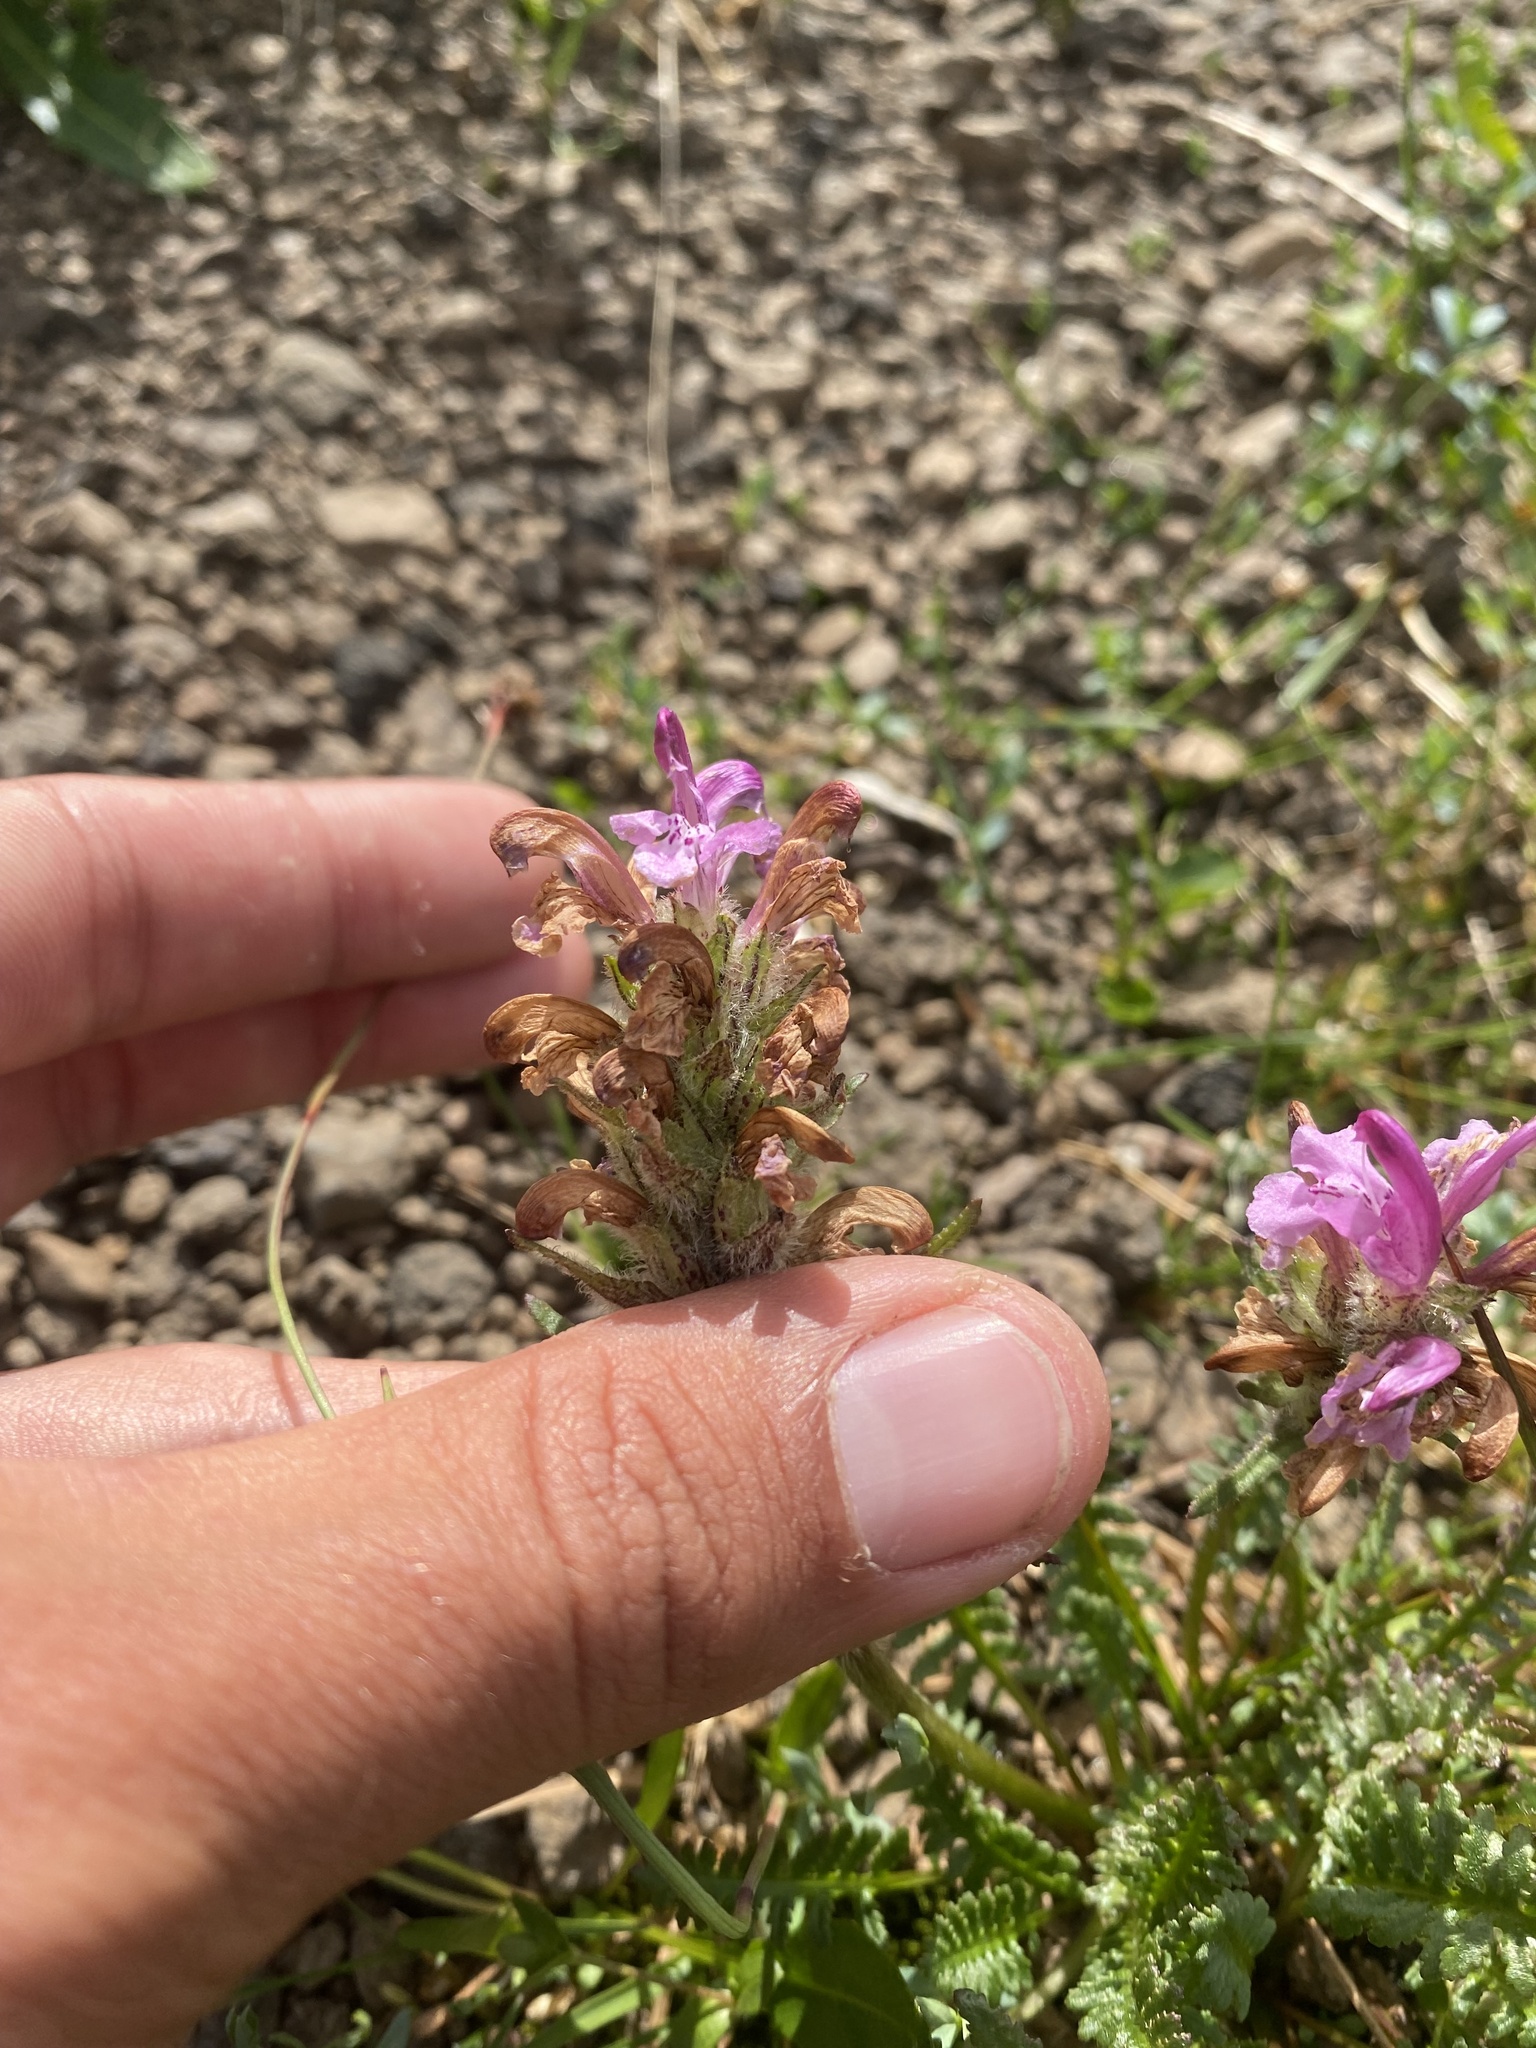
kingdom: Plantae
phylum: Tracheophyta
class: Magnoliopsida
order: Lamiales
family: Orobanchaceae
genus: Pedicularis
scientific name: Pedicularis novaiae-zemliae
